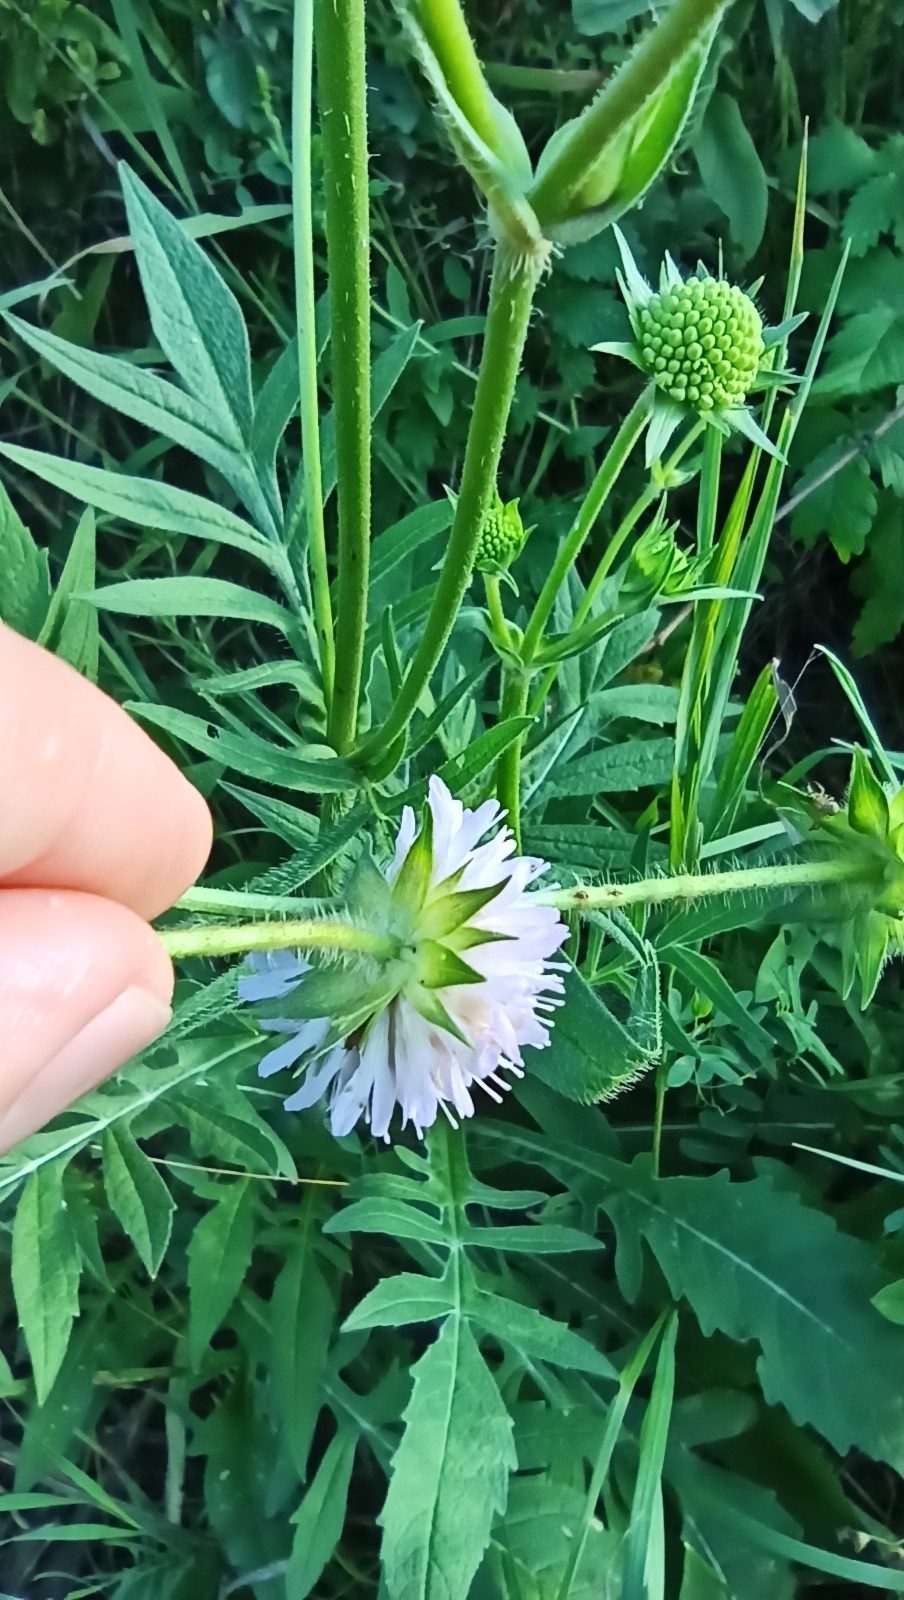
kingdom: Plantae
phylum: Tracheophyta
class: Magnoliopsida
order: Dipsacales
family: Caprifoliaceae
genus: Knautia
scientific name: Knautia arvensis
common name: Field scabiosa
